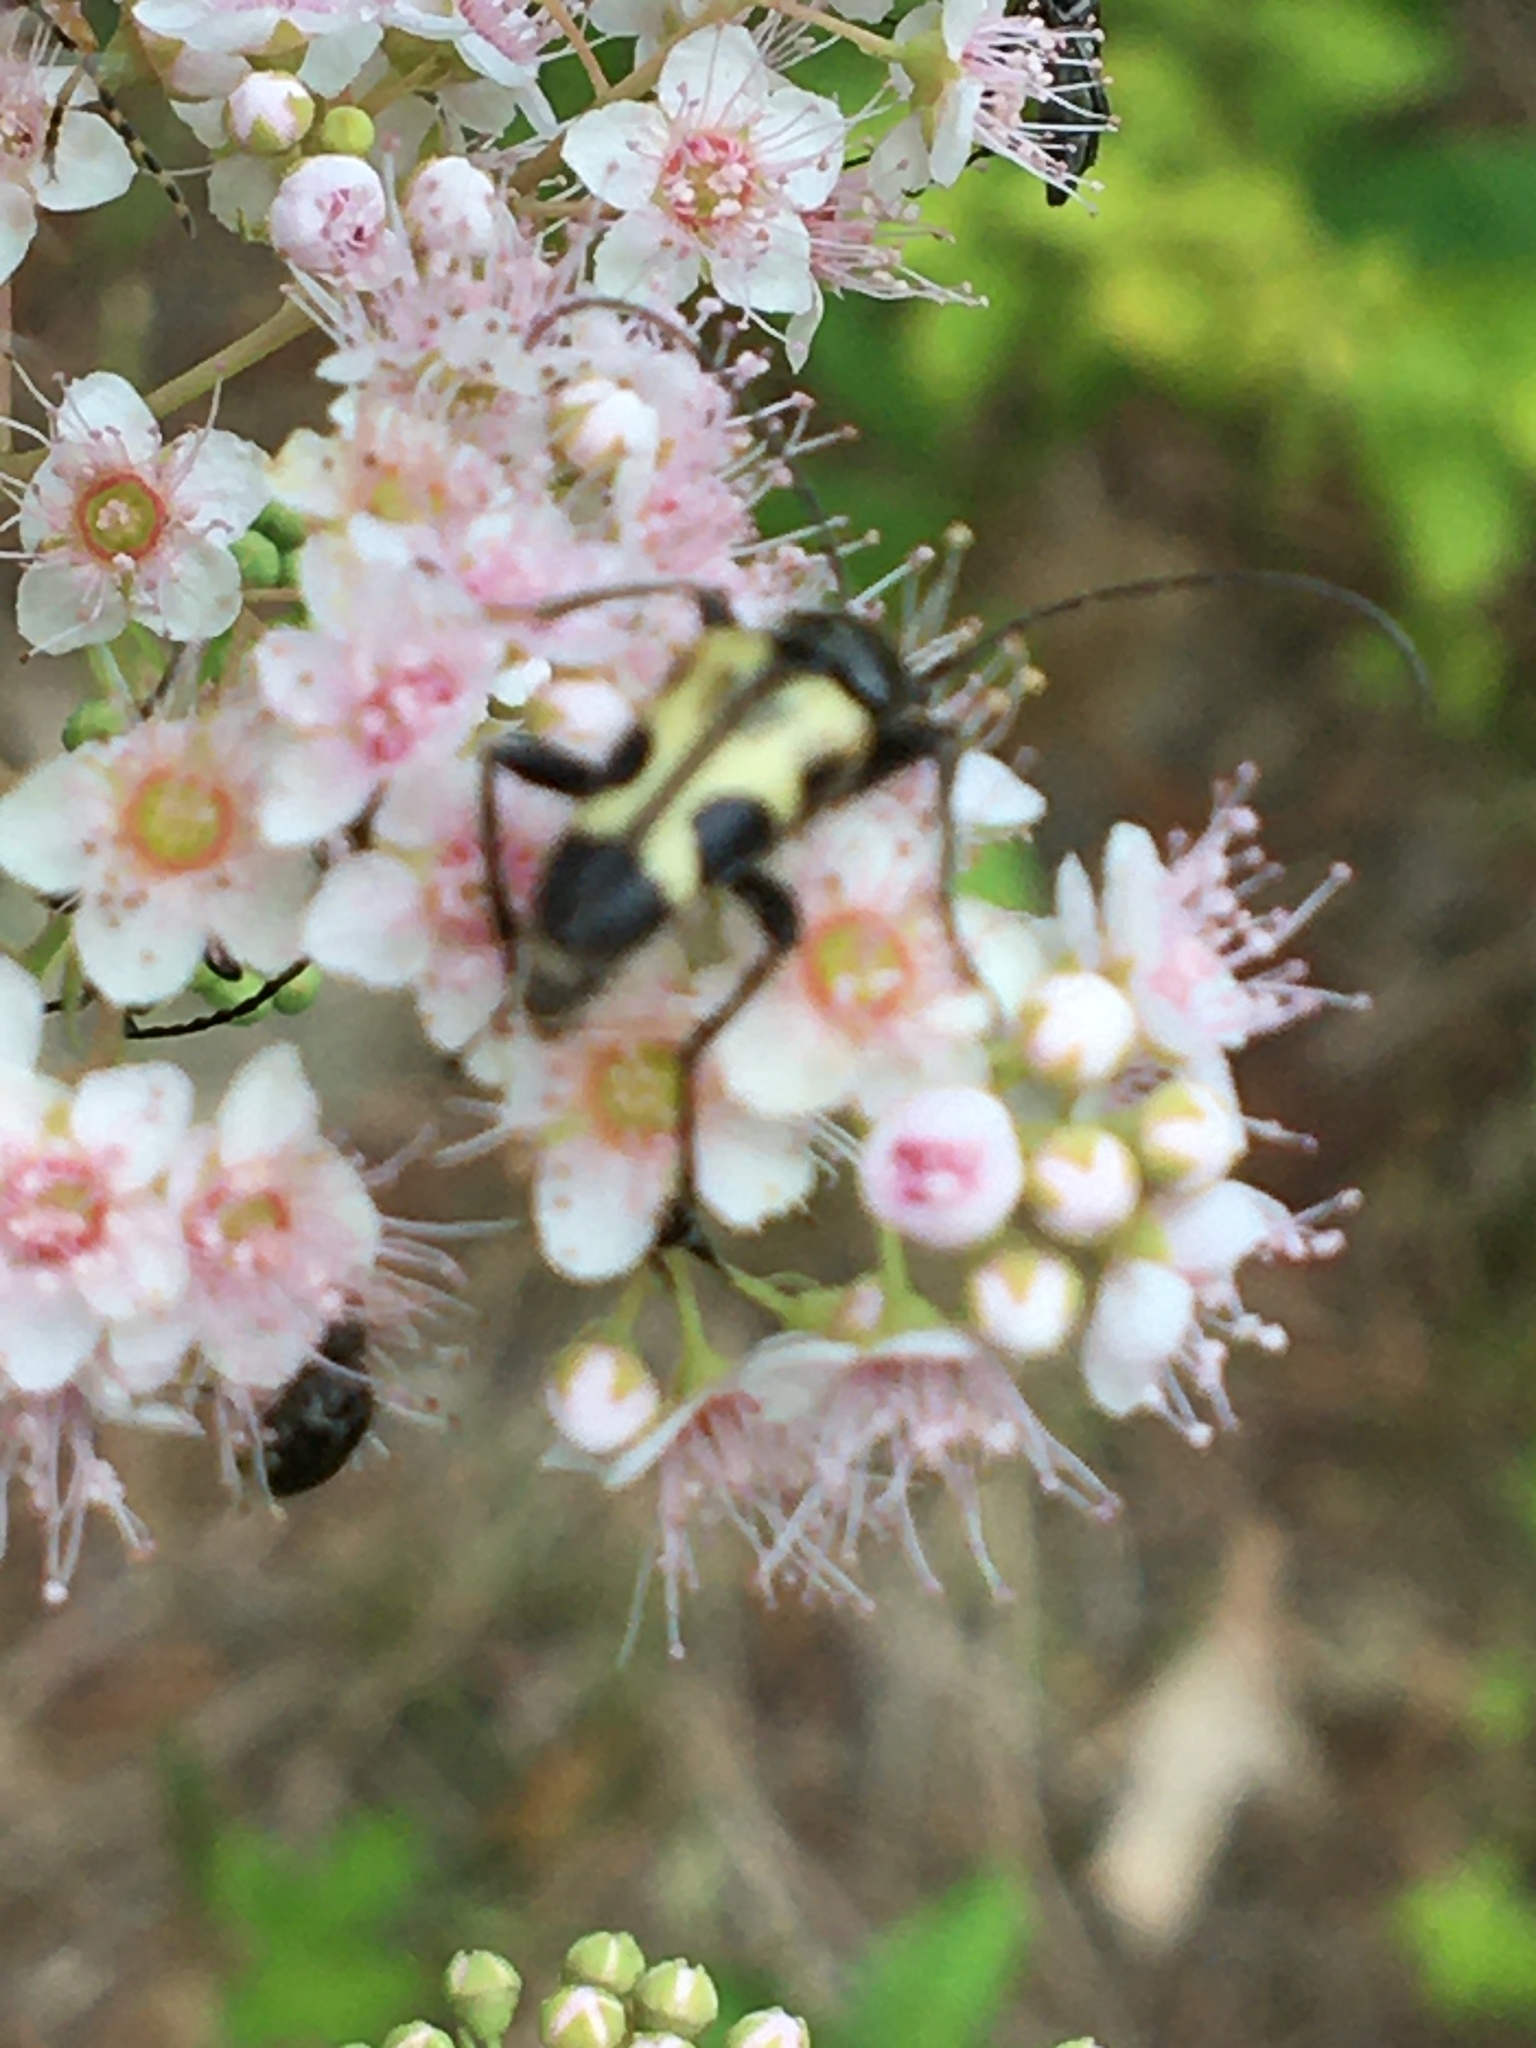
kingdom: Animalia
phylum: Arthropoda
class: Insecta
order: Coleoptera
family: Cerambycidae
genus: Judolia
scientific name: Judolia cordifera
